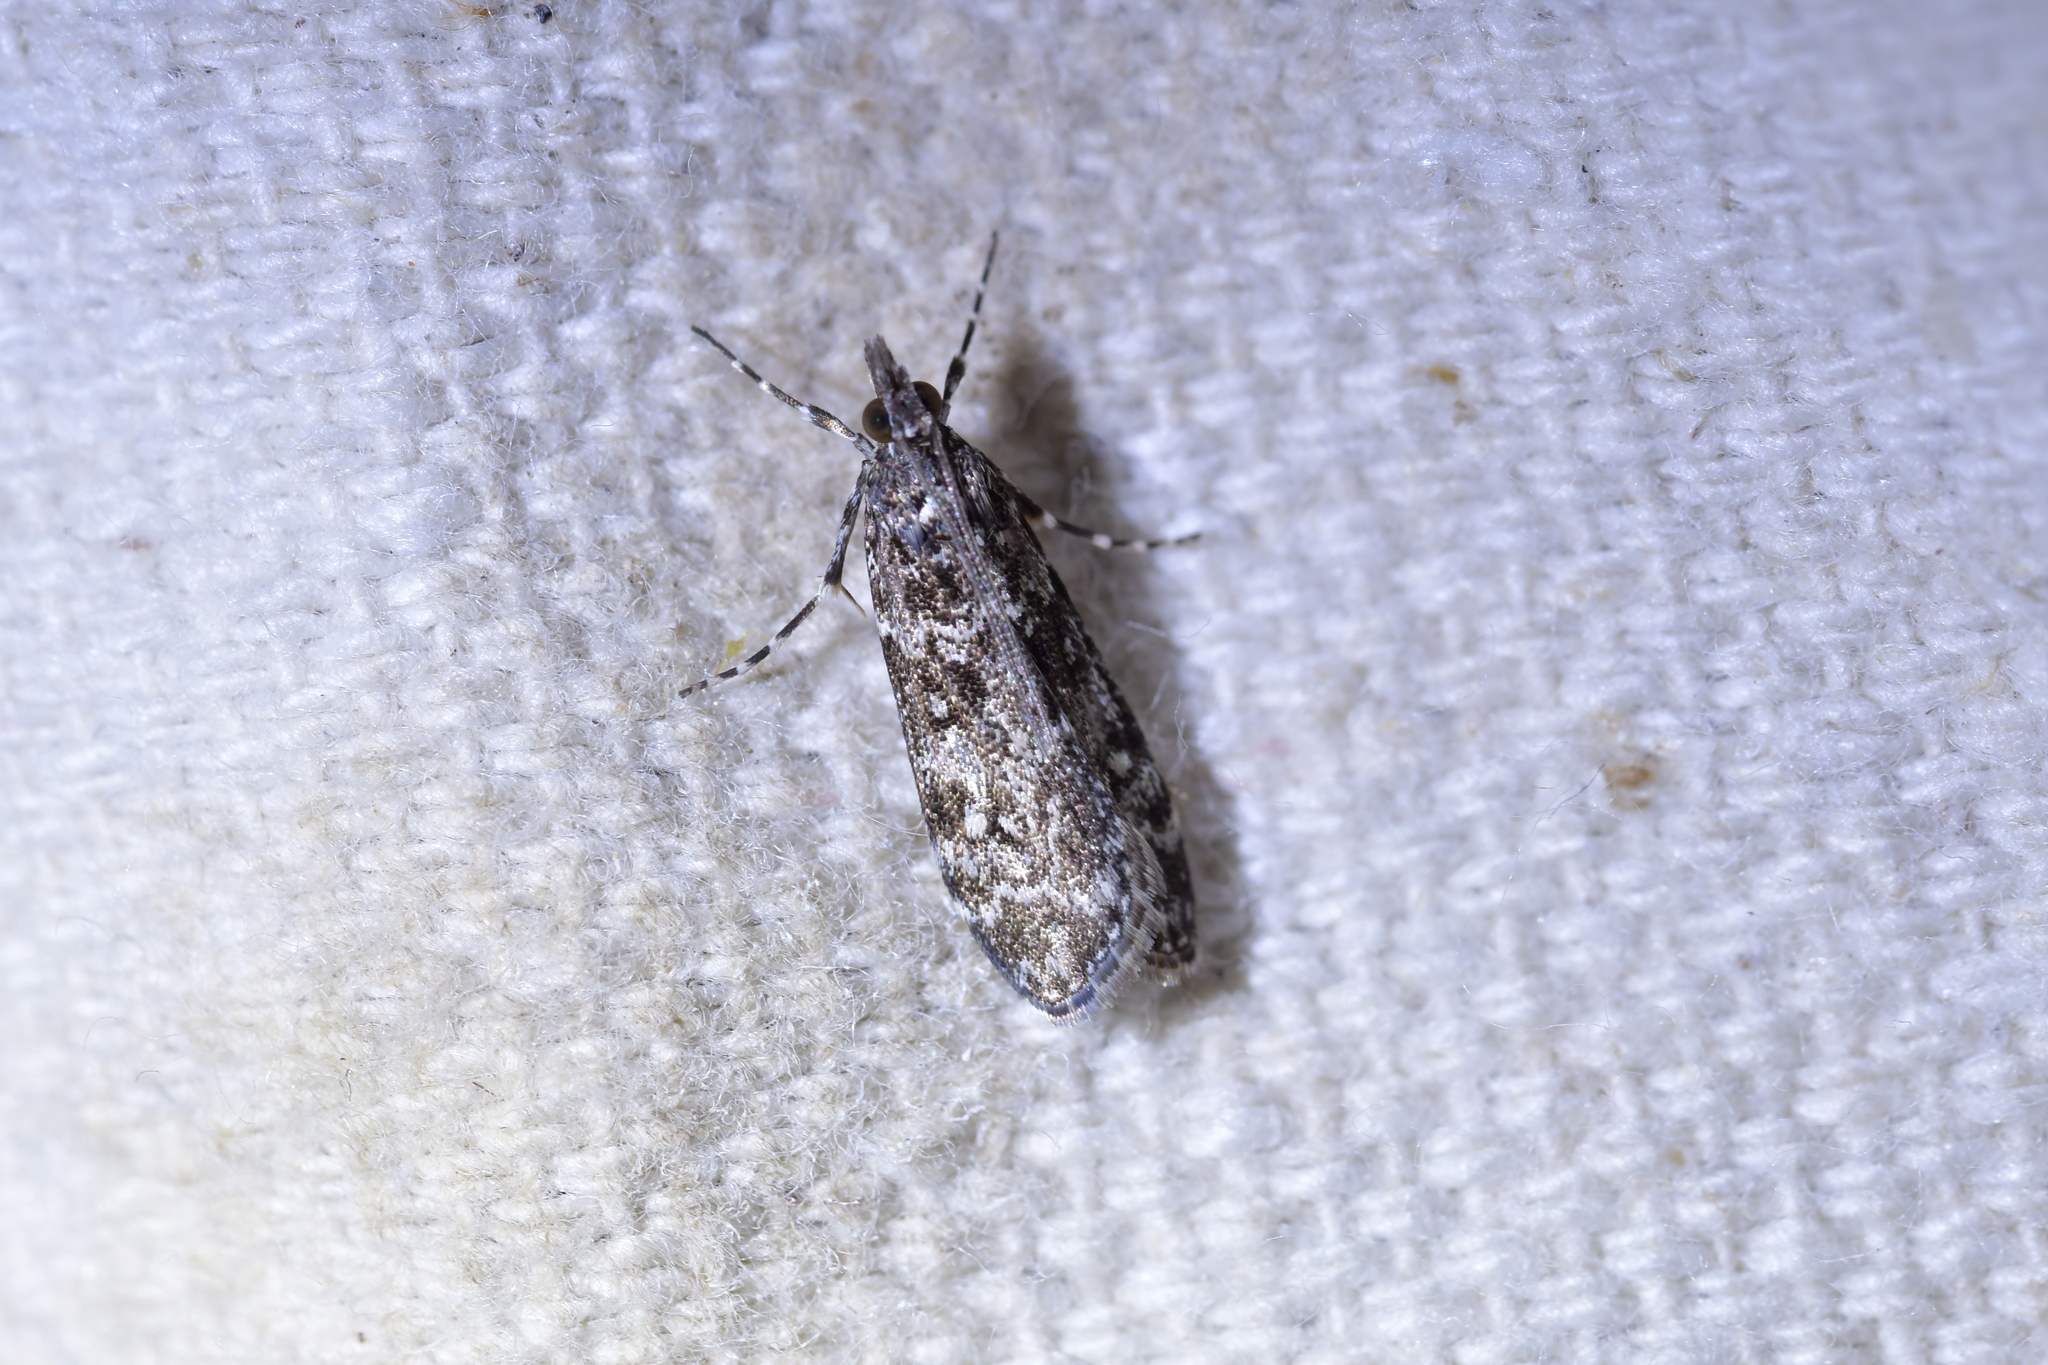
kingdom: Animalia
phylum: Arthropoda
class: Insecta
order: Lepidoptera
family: Crambidae
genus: Eudonia
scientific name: Eudonia philerga
